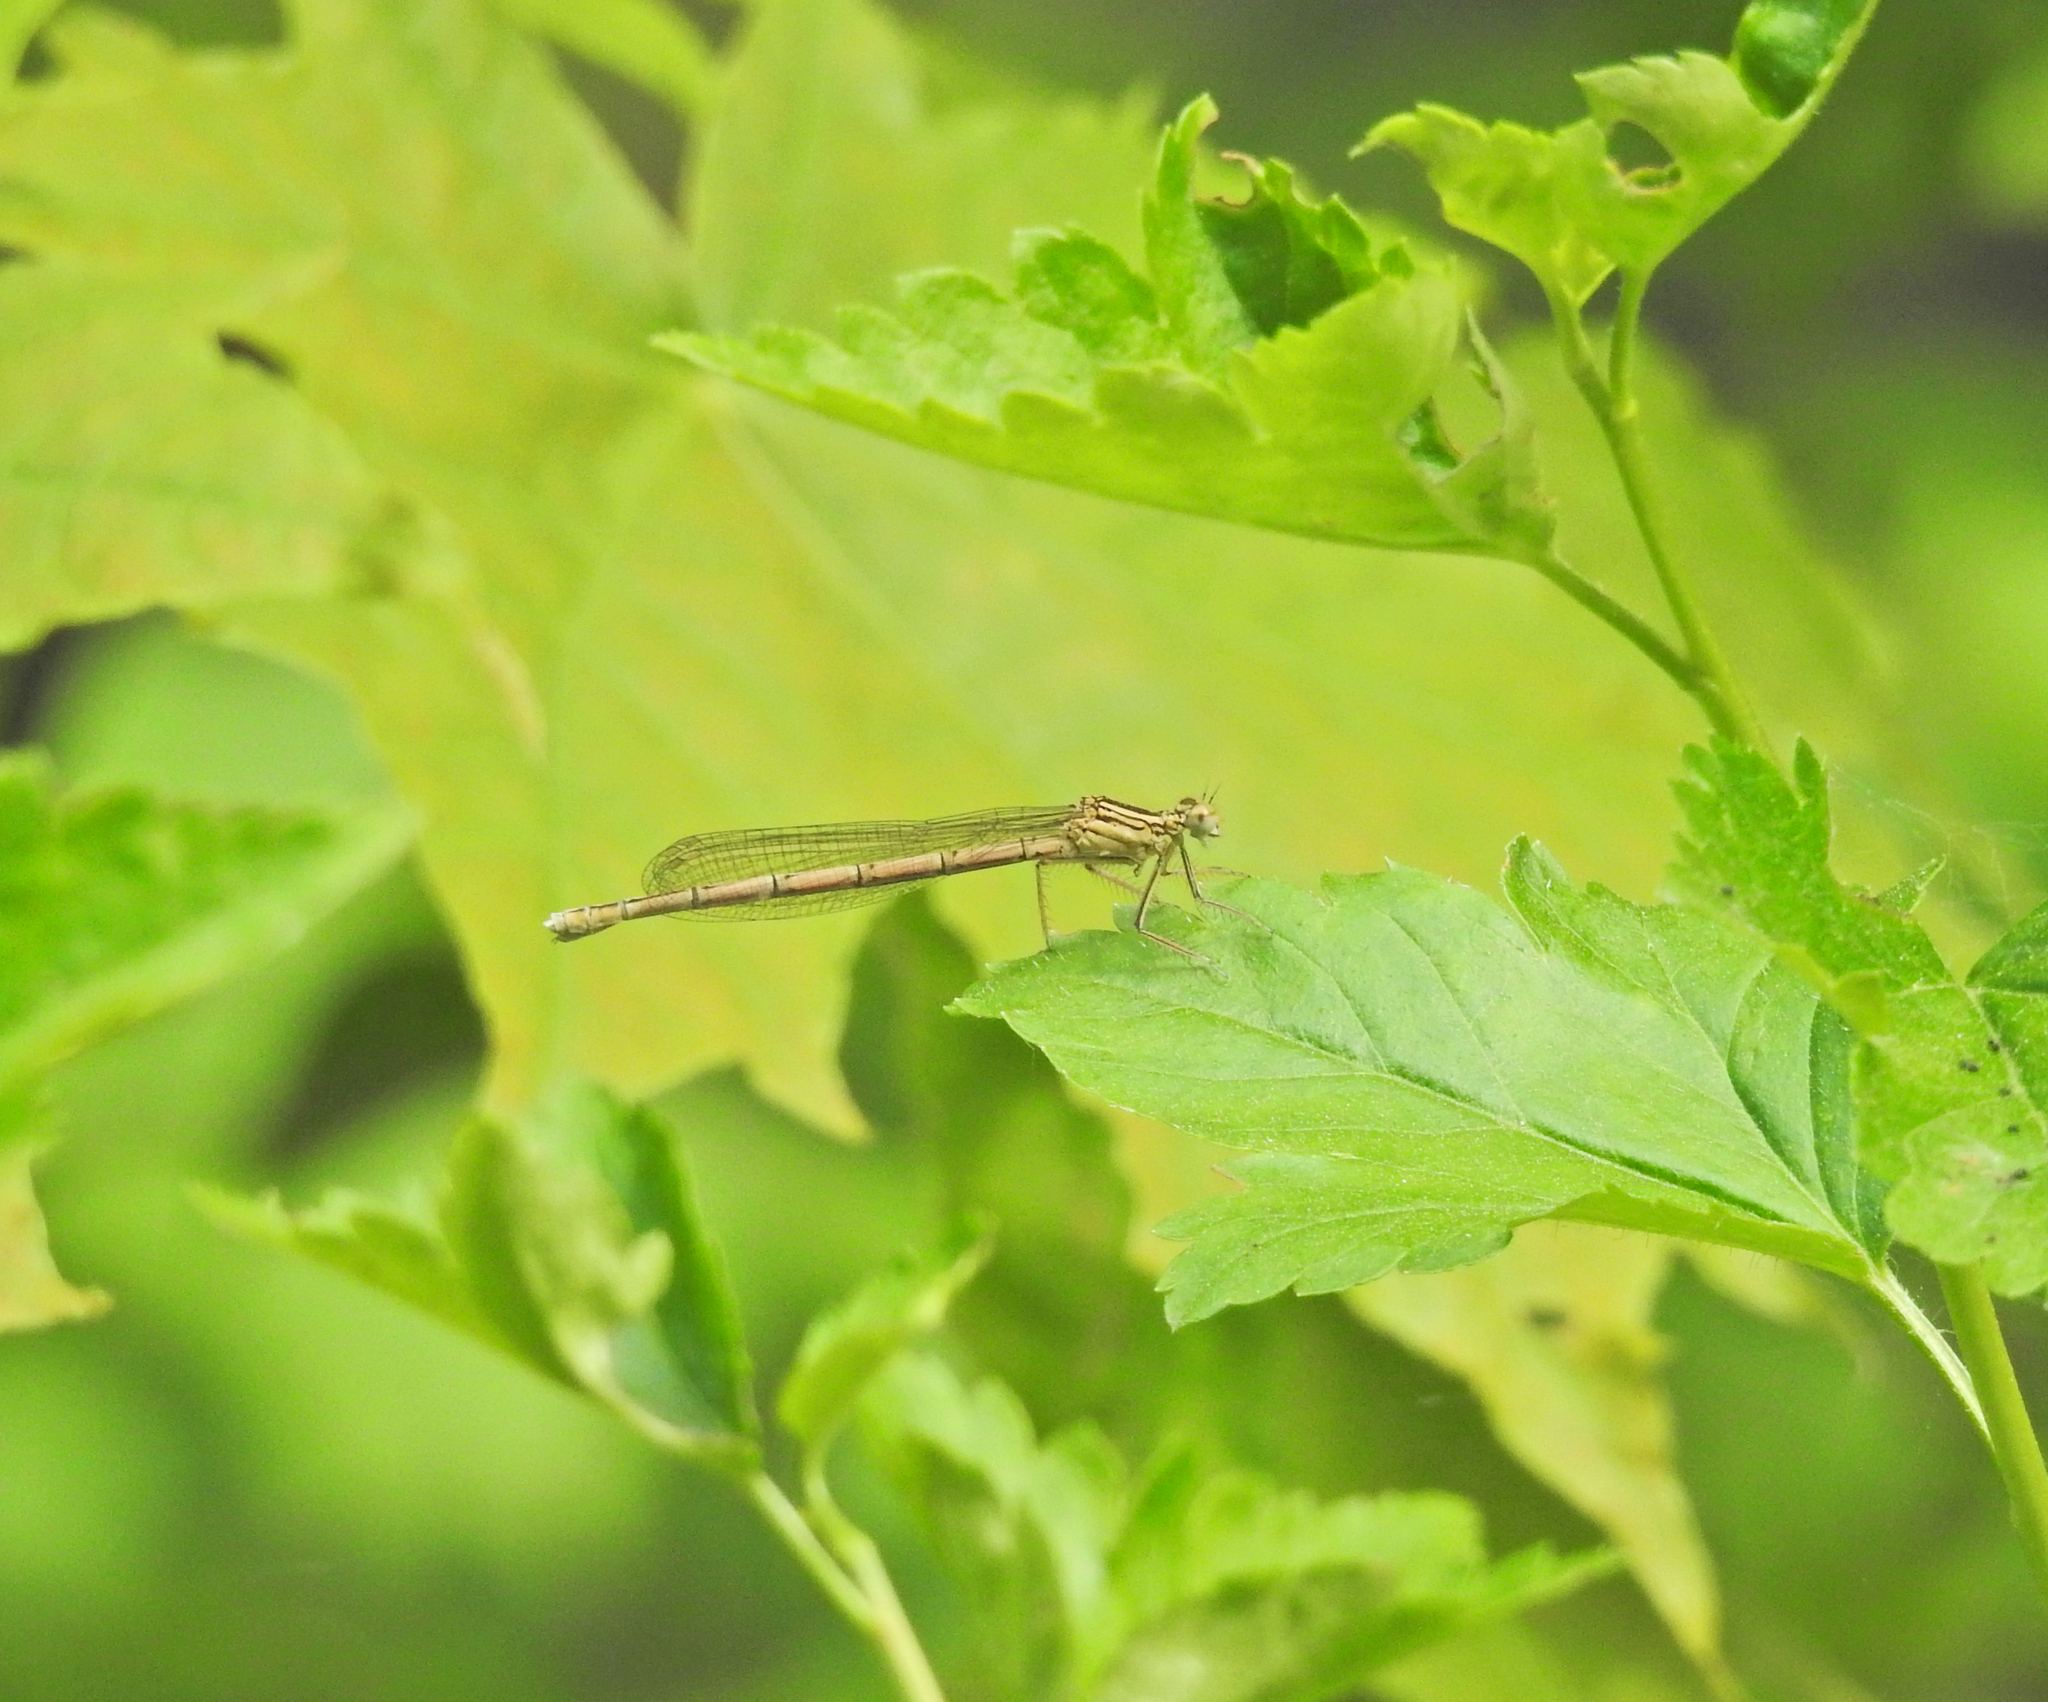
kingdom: Animalia
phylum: Arthropoda
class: Insecta
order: Odonata
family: Platycnemididae
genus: Platycnemis
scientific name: Platycnemis pennipes
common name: White-legged damselfly
